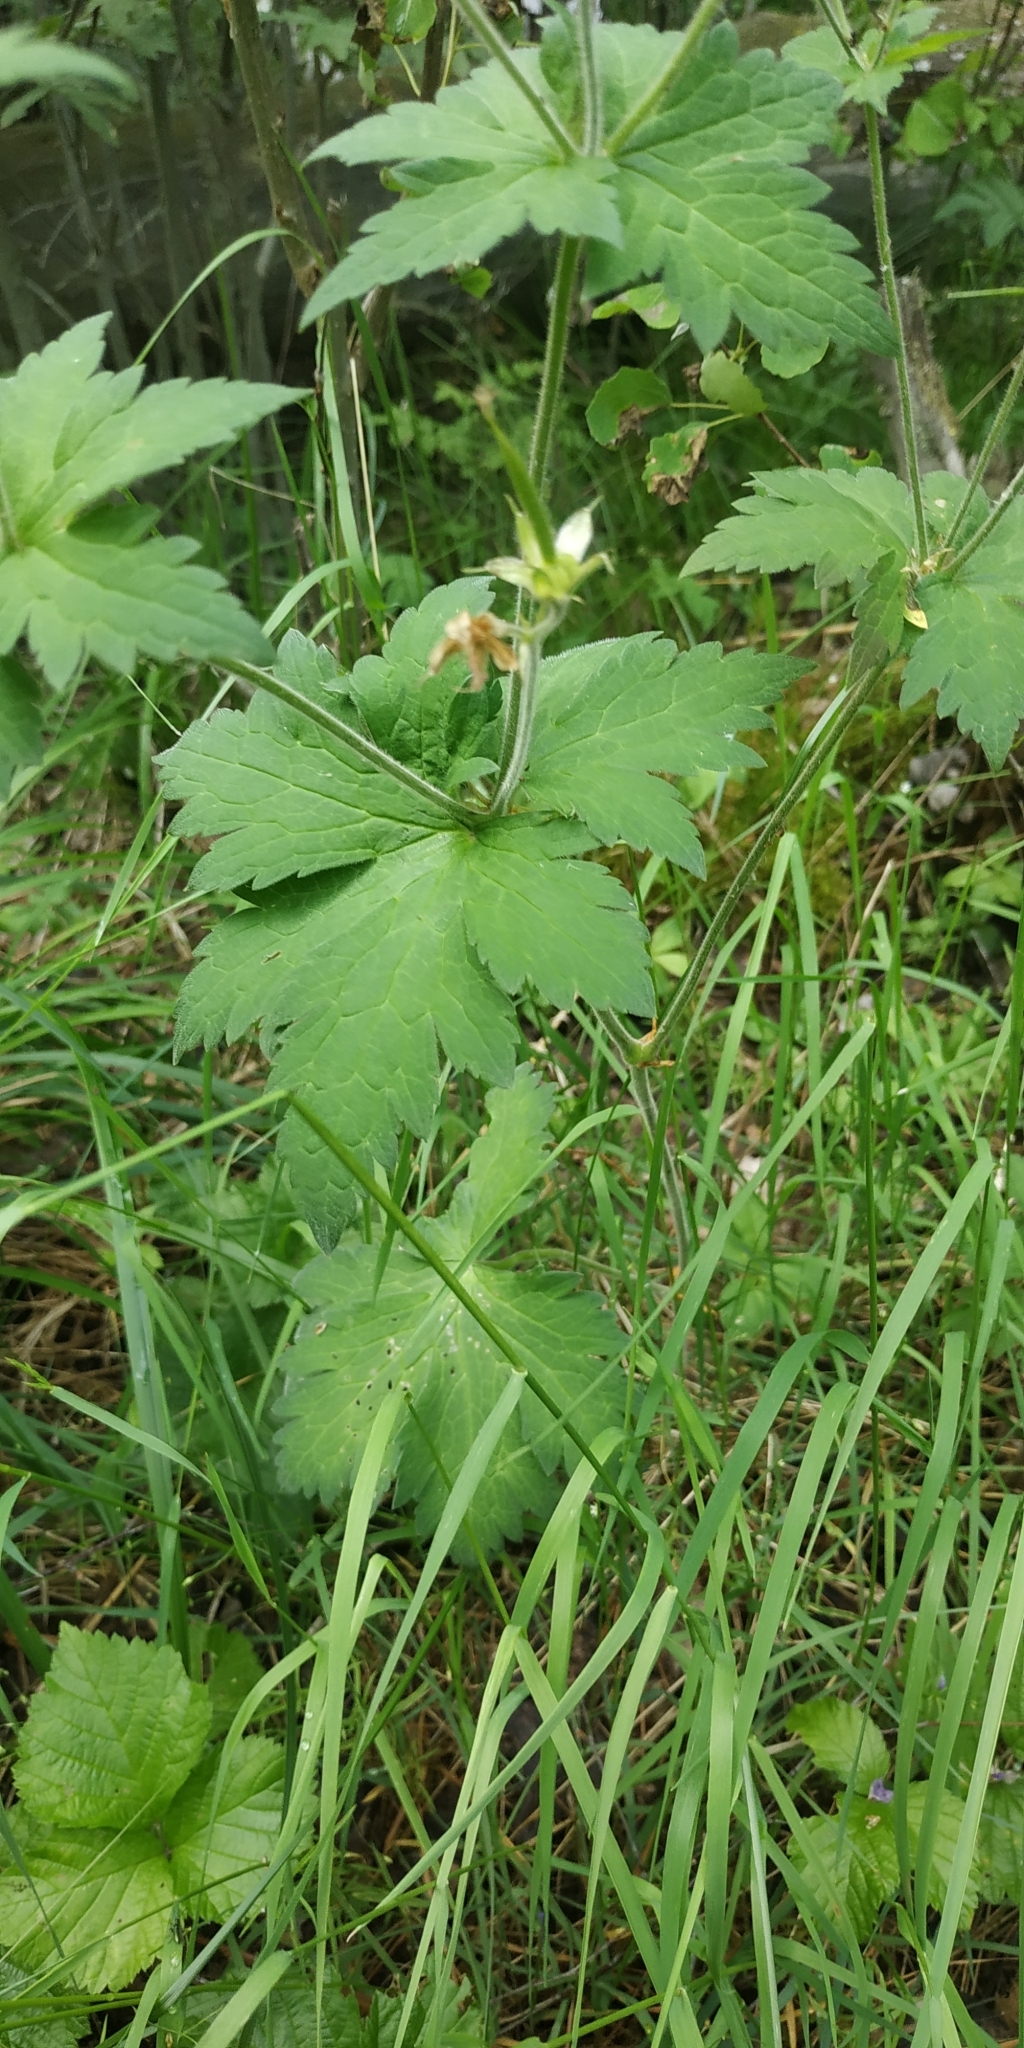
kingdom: Plantae
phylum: Tracheophyta
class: Magnoliopsida
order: Geraniales
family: Geraniaceae
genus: Geranium
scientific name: Geranium sylvaticum
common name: Wood crane's-bill
